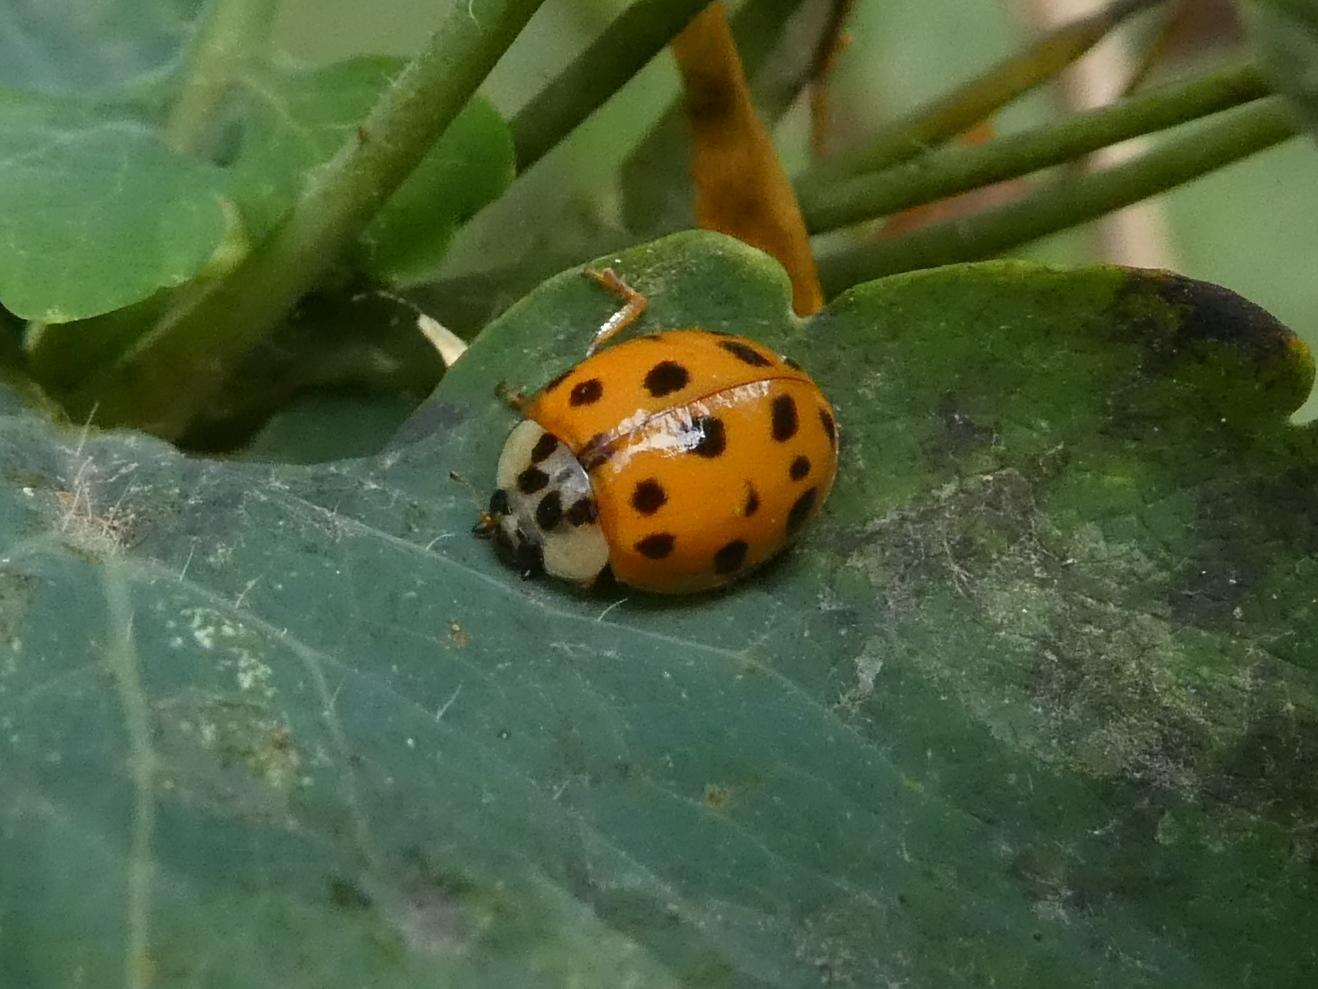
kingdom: Animalia
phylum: Arthropoda
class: Insecta
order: Coleoptera
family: Coccinellidae
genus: Harmonia
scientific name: Harmonia axyridis
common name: Harlequin ladybird
